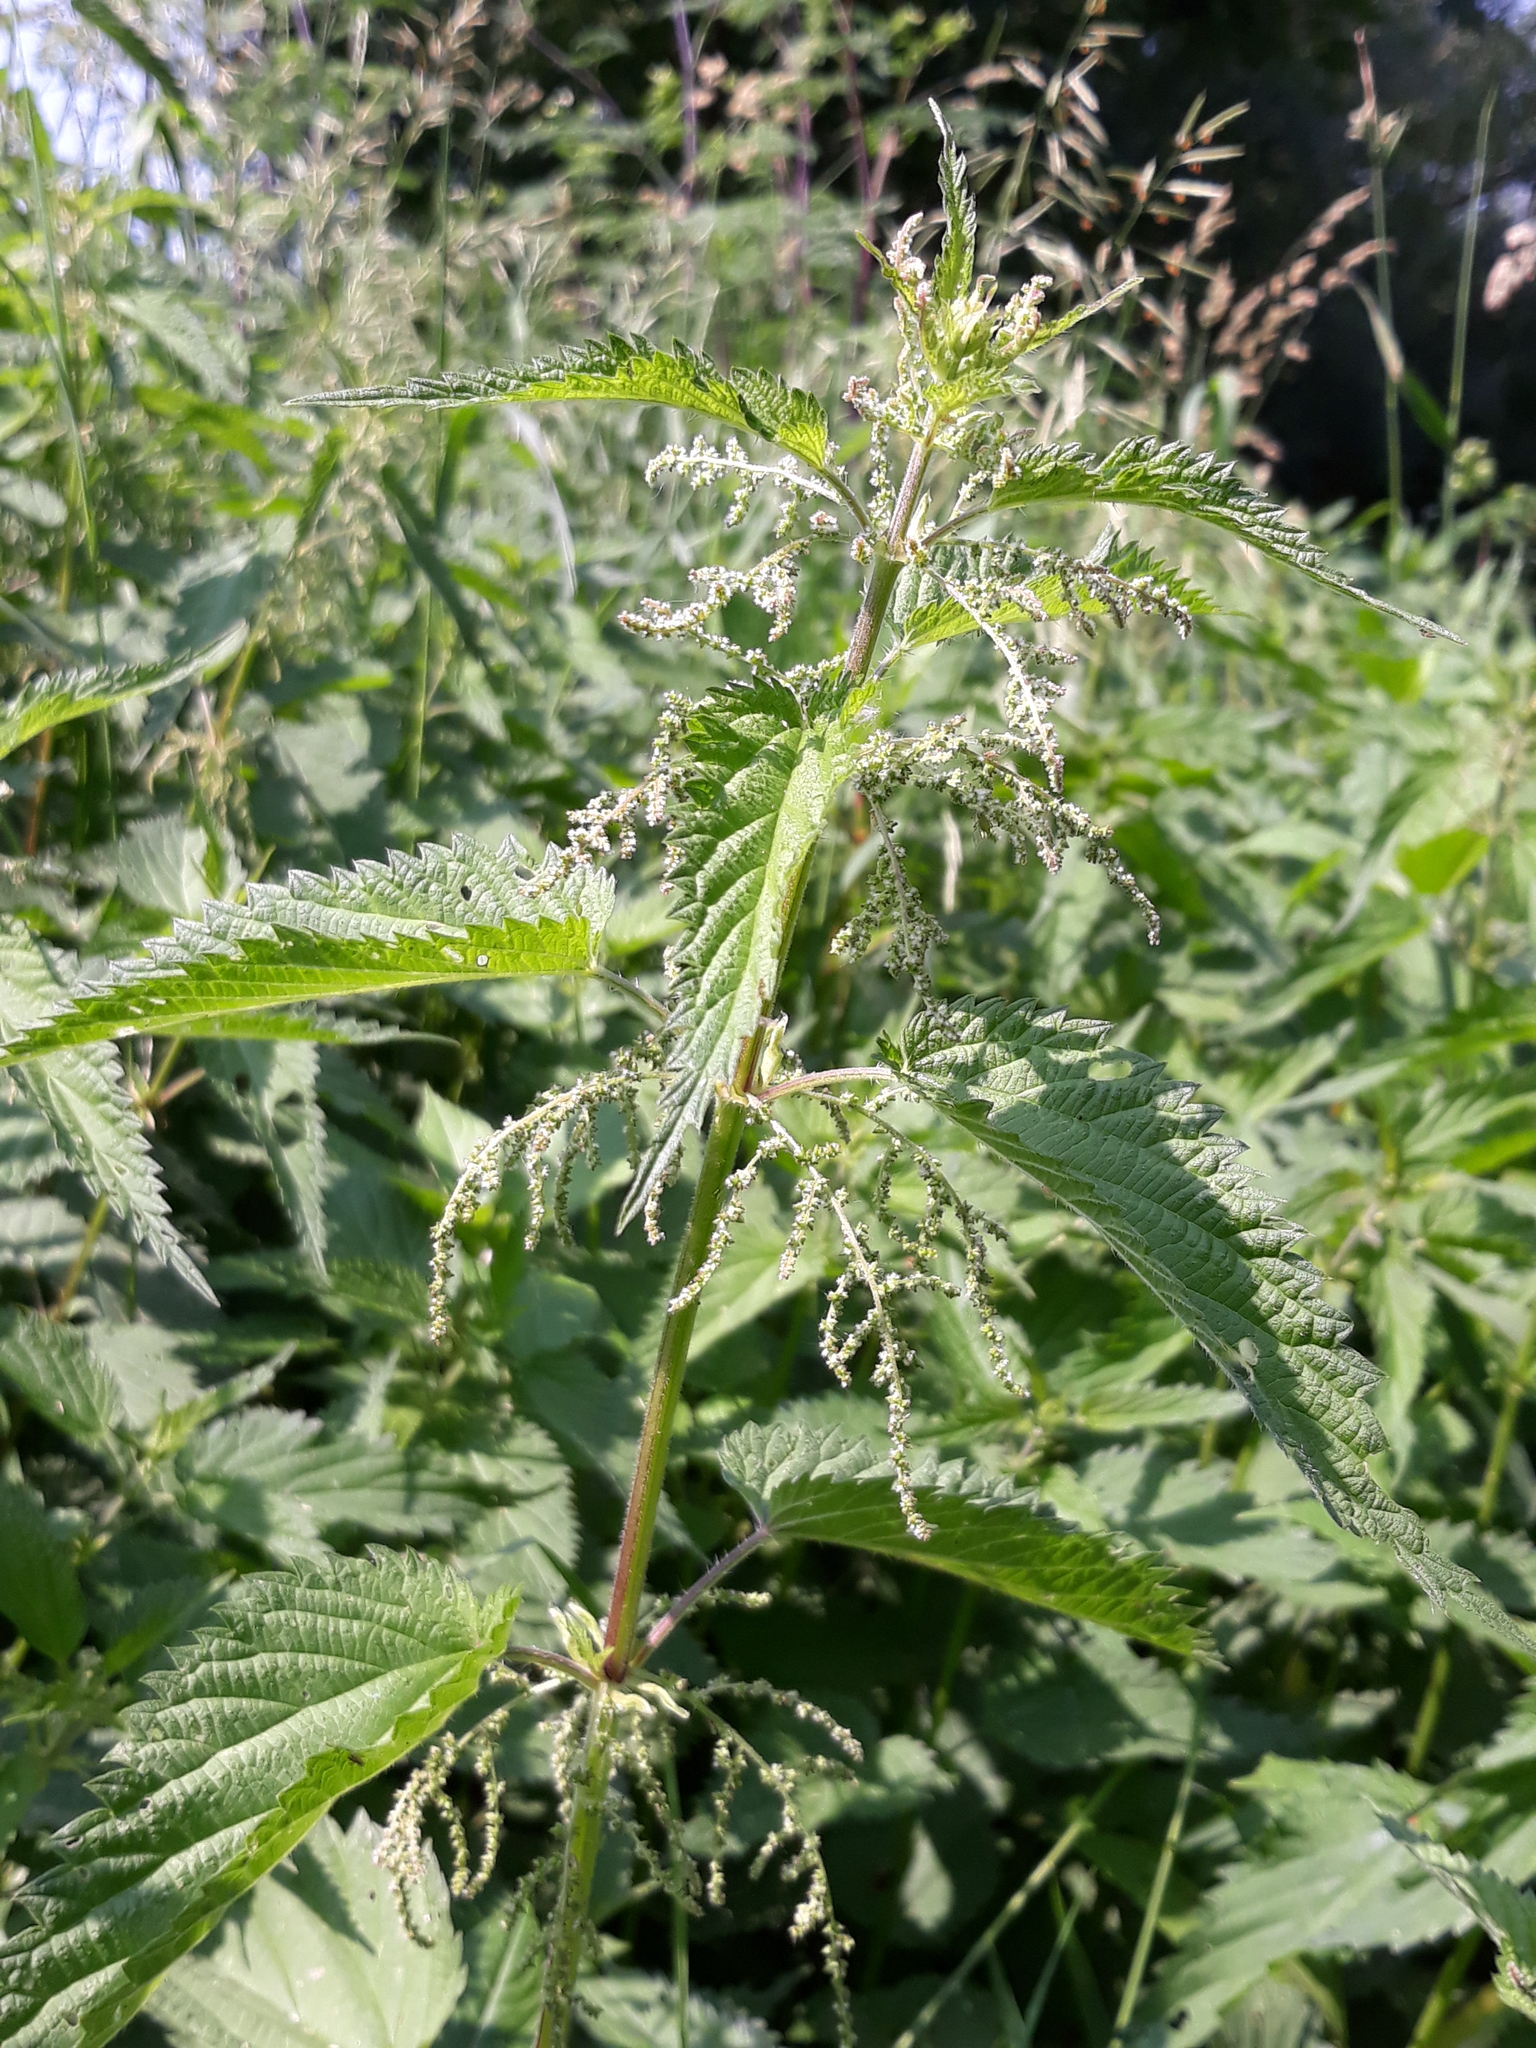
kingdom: Plantae
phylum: Tracheophyta
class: Magnoliopsida
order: Rosales
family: Urticaceae
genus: Urtica
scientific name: Urtica dioica
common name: Common nettle
